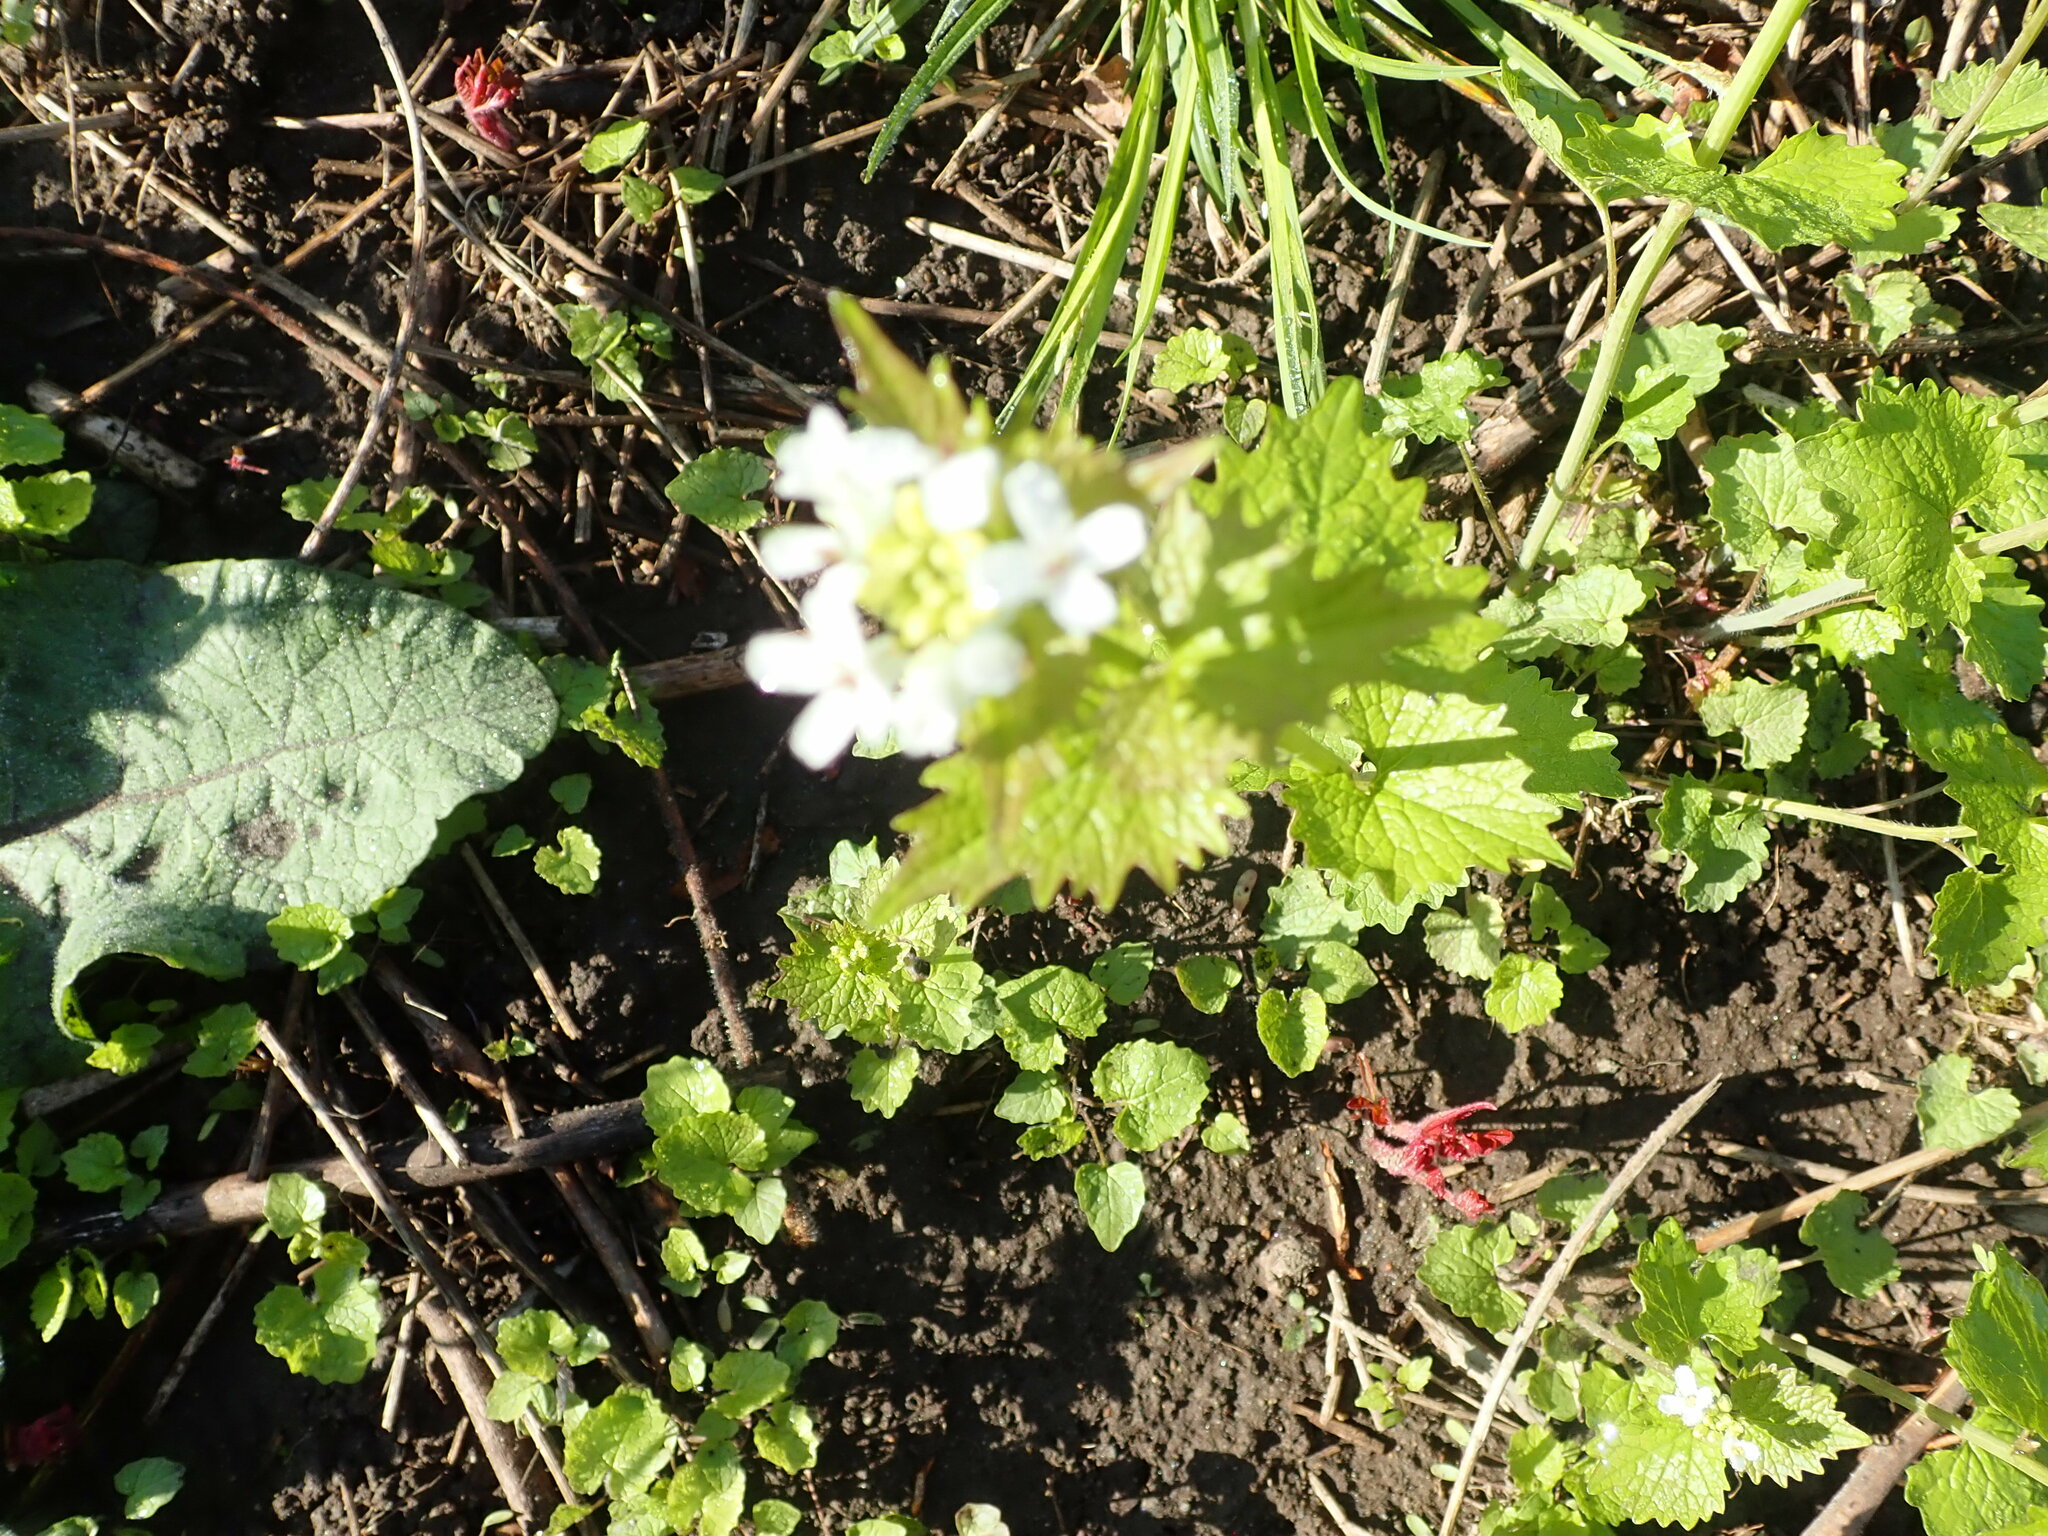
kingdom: Plantae
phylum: Tracheophyta
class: Magnoliopsida
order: Brassicales
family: Brassicaceae
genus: Alliaria
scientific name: Alliaria petiolata
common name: Garlic mustard
